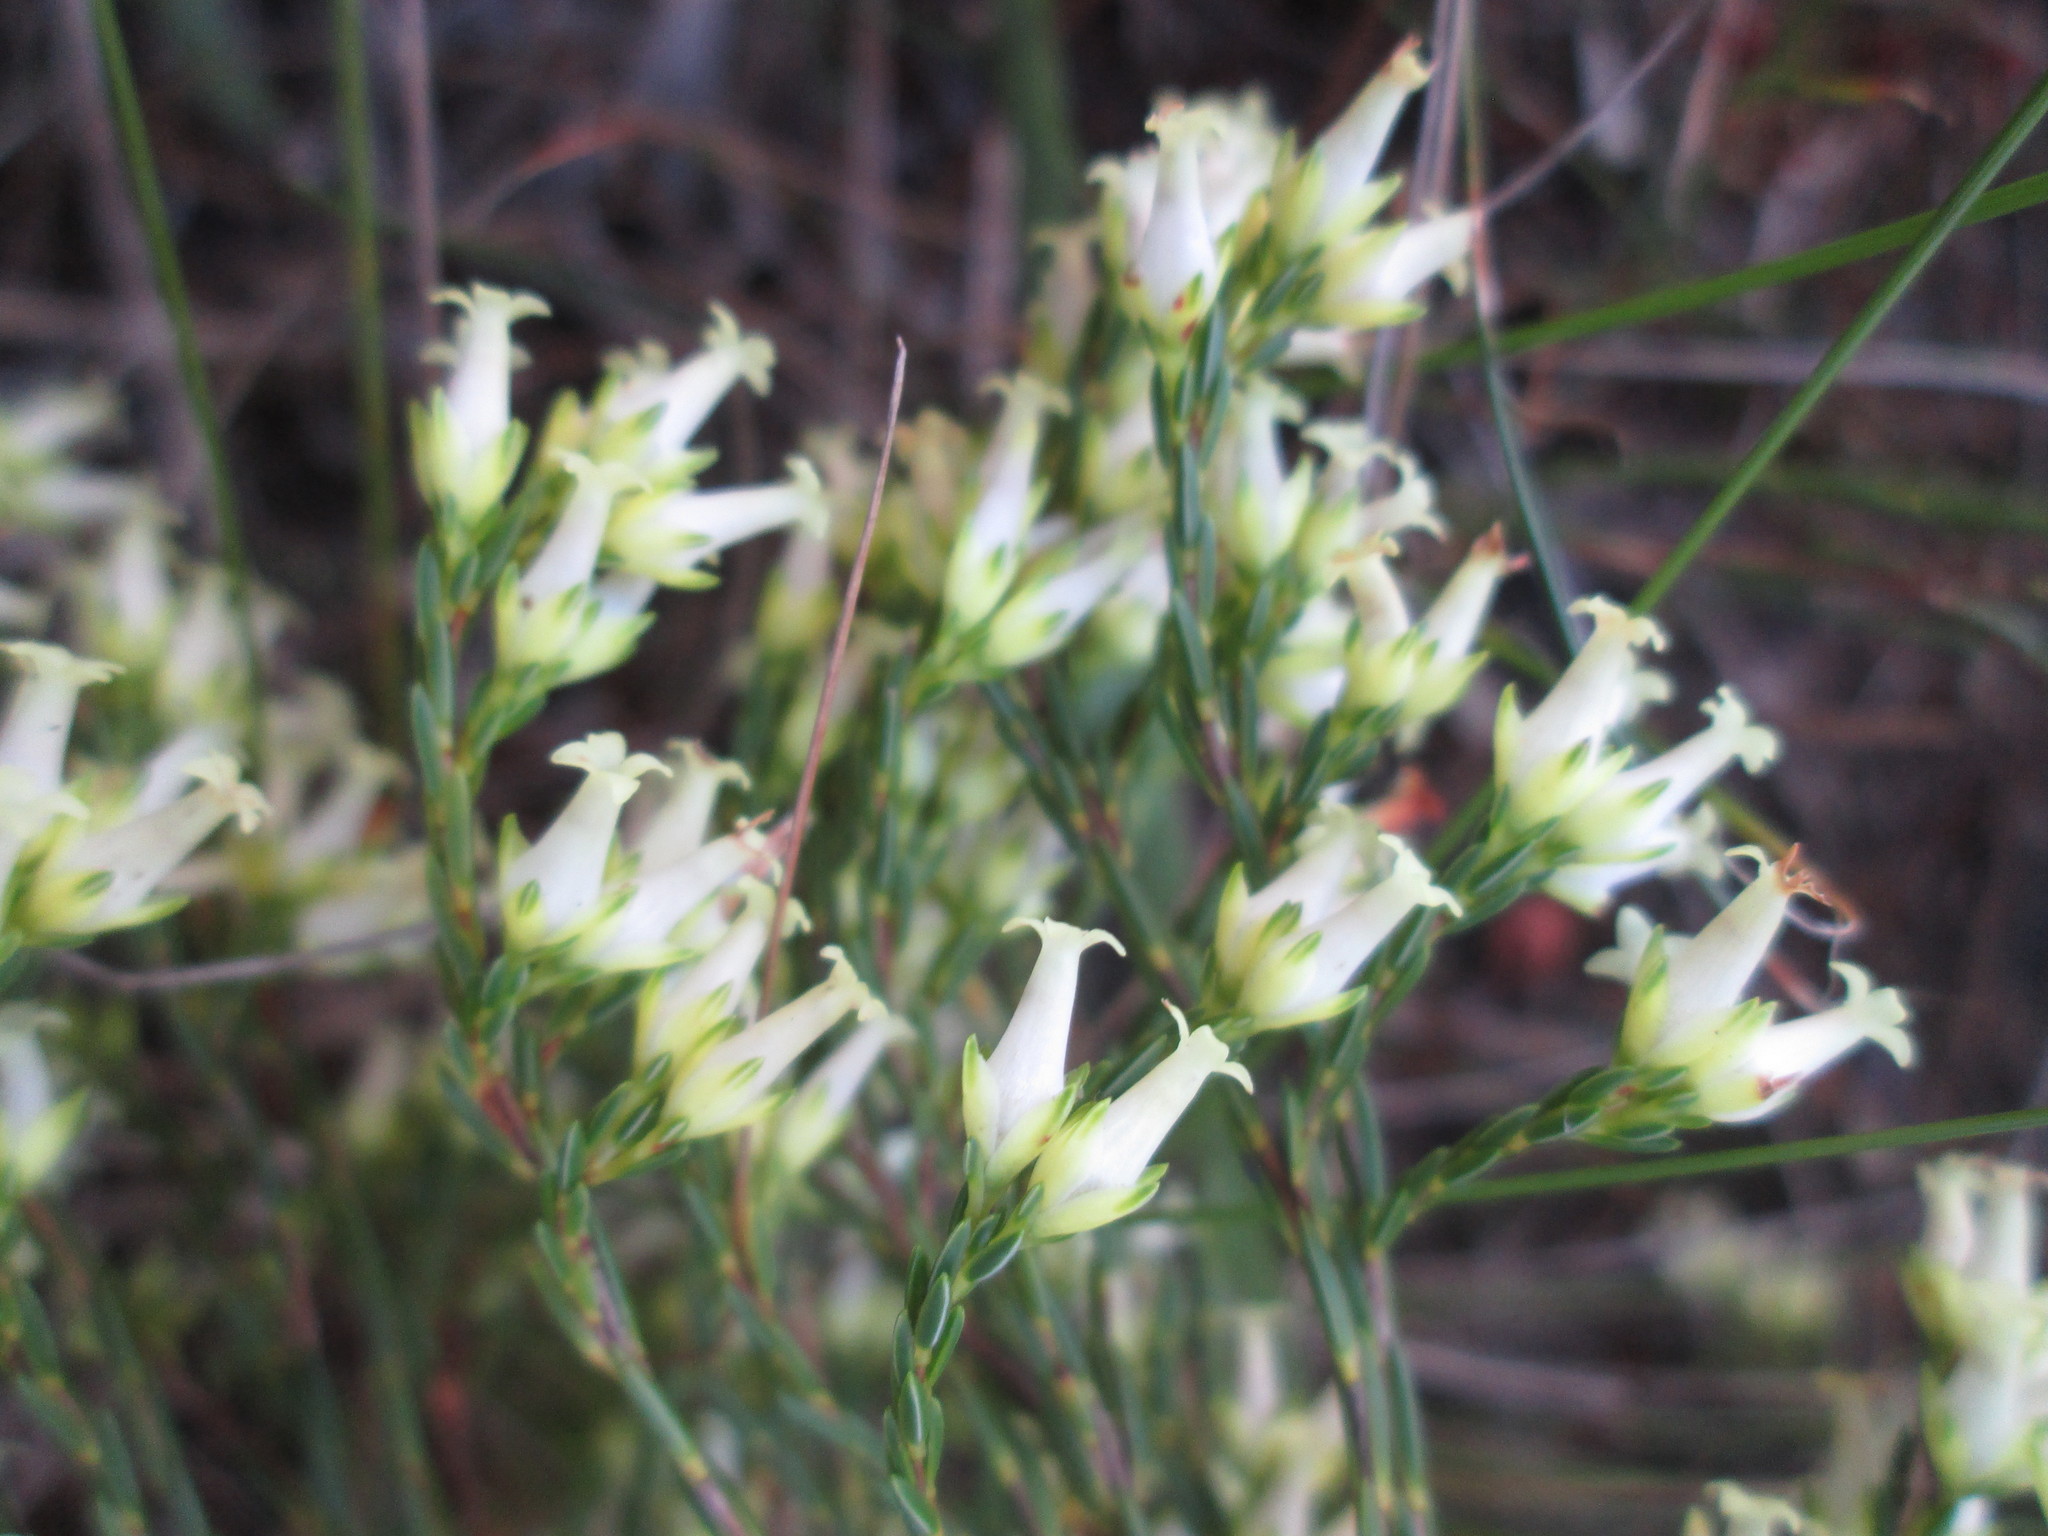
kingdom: Plantae
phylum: Tracheophyta
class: Magnoliopsida
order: Ericales
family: Ericaceae
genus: Erica
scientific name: Erica lutea
